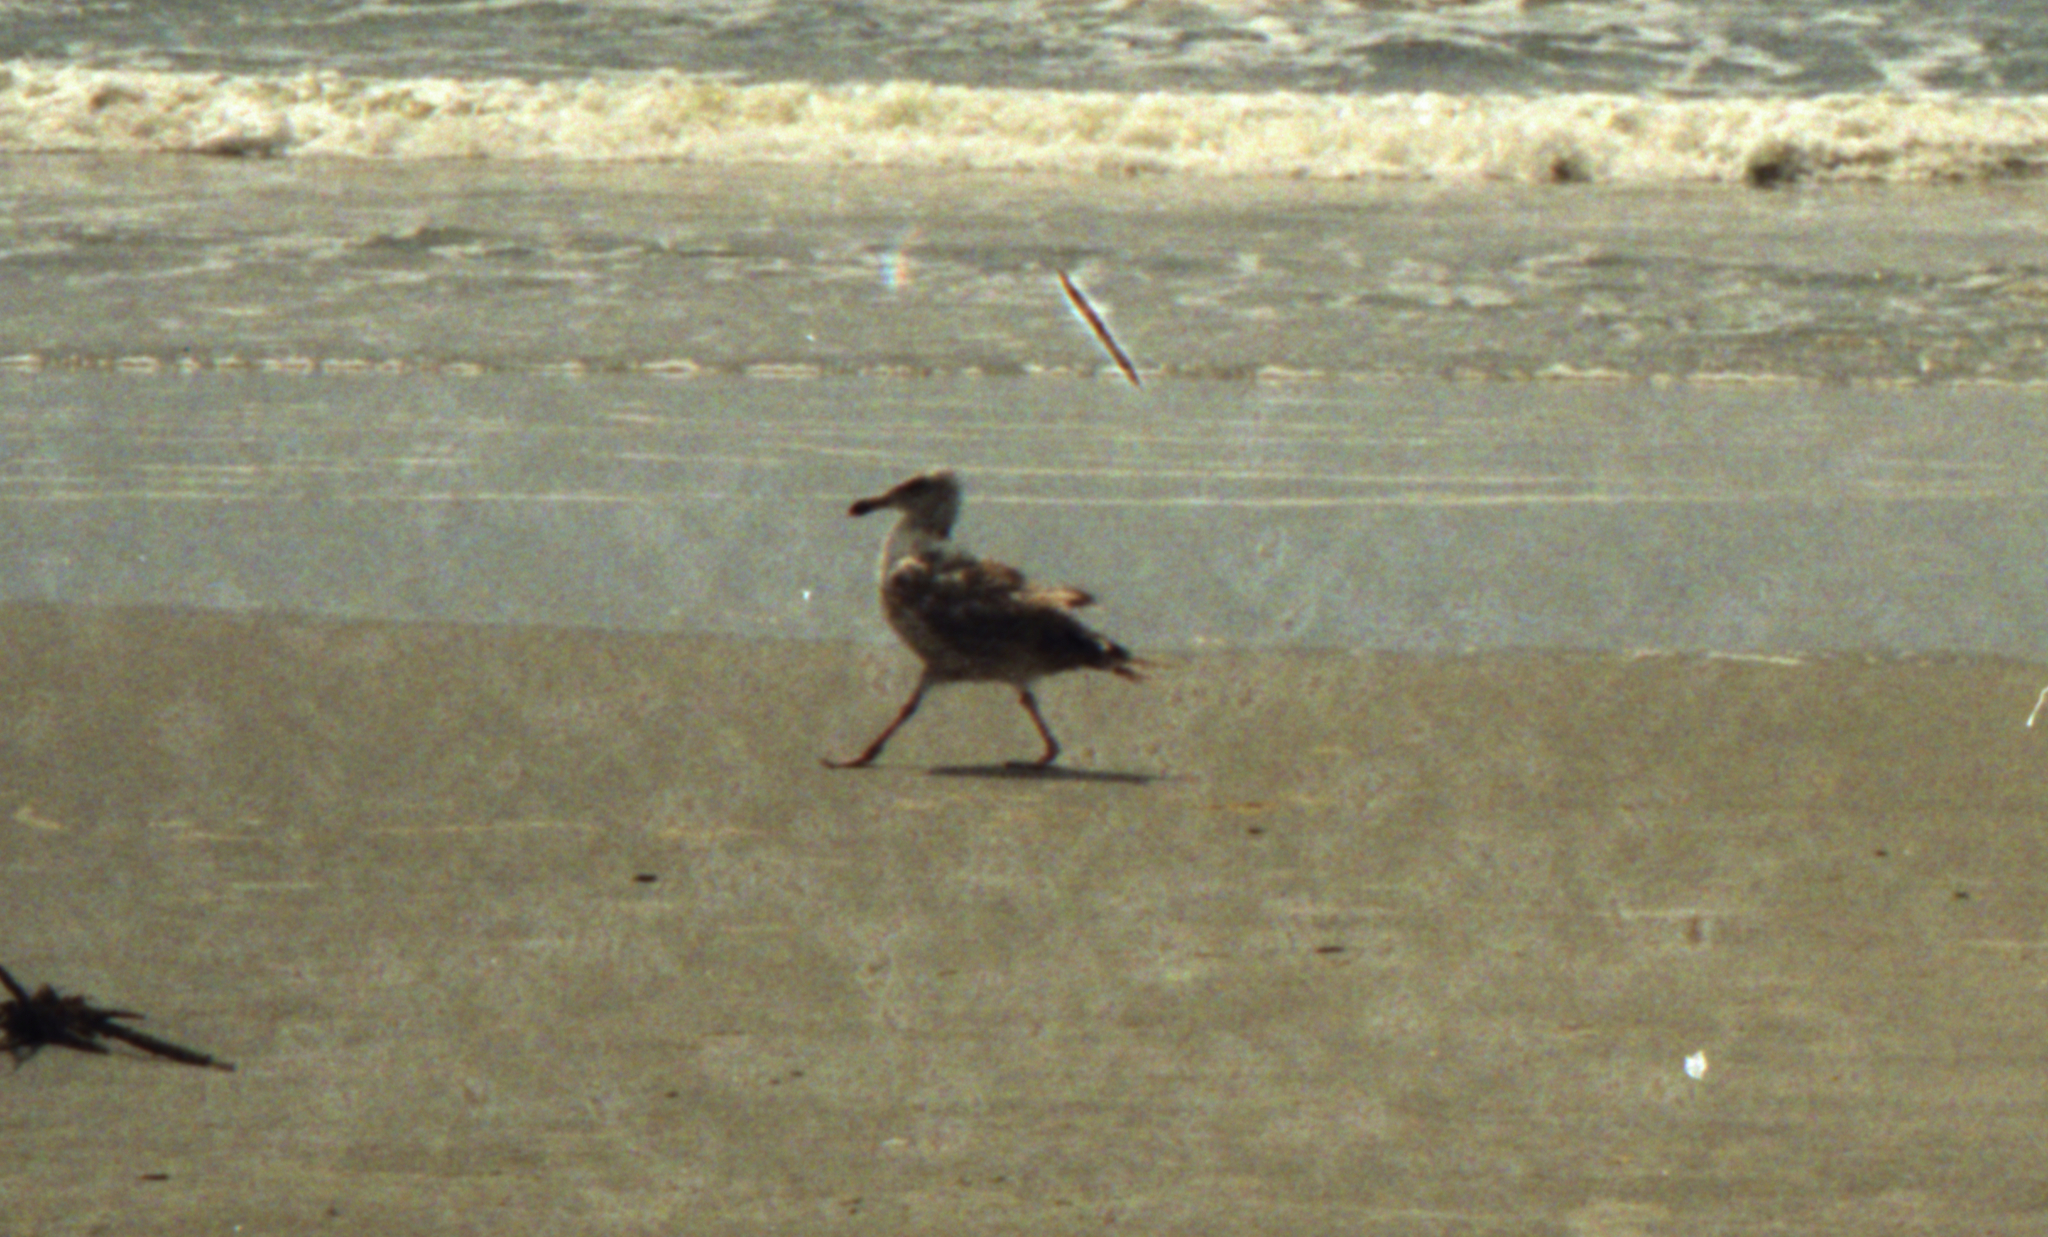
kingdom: Animalia
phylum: Chordata
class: Aves
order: Charadriiformes
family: Laridae
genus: Larus
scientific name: Larus argentatus
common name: Herring gull
